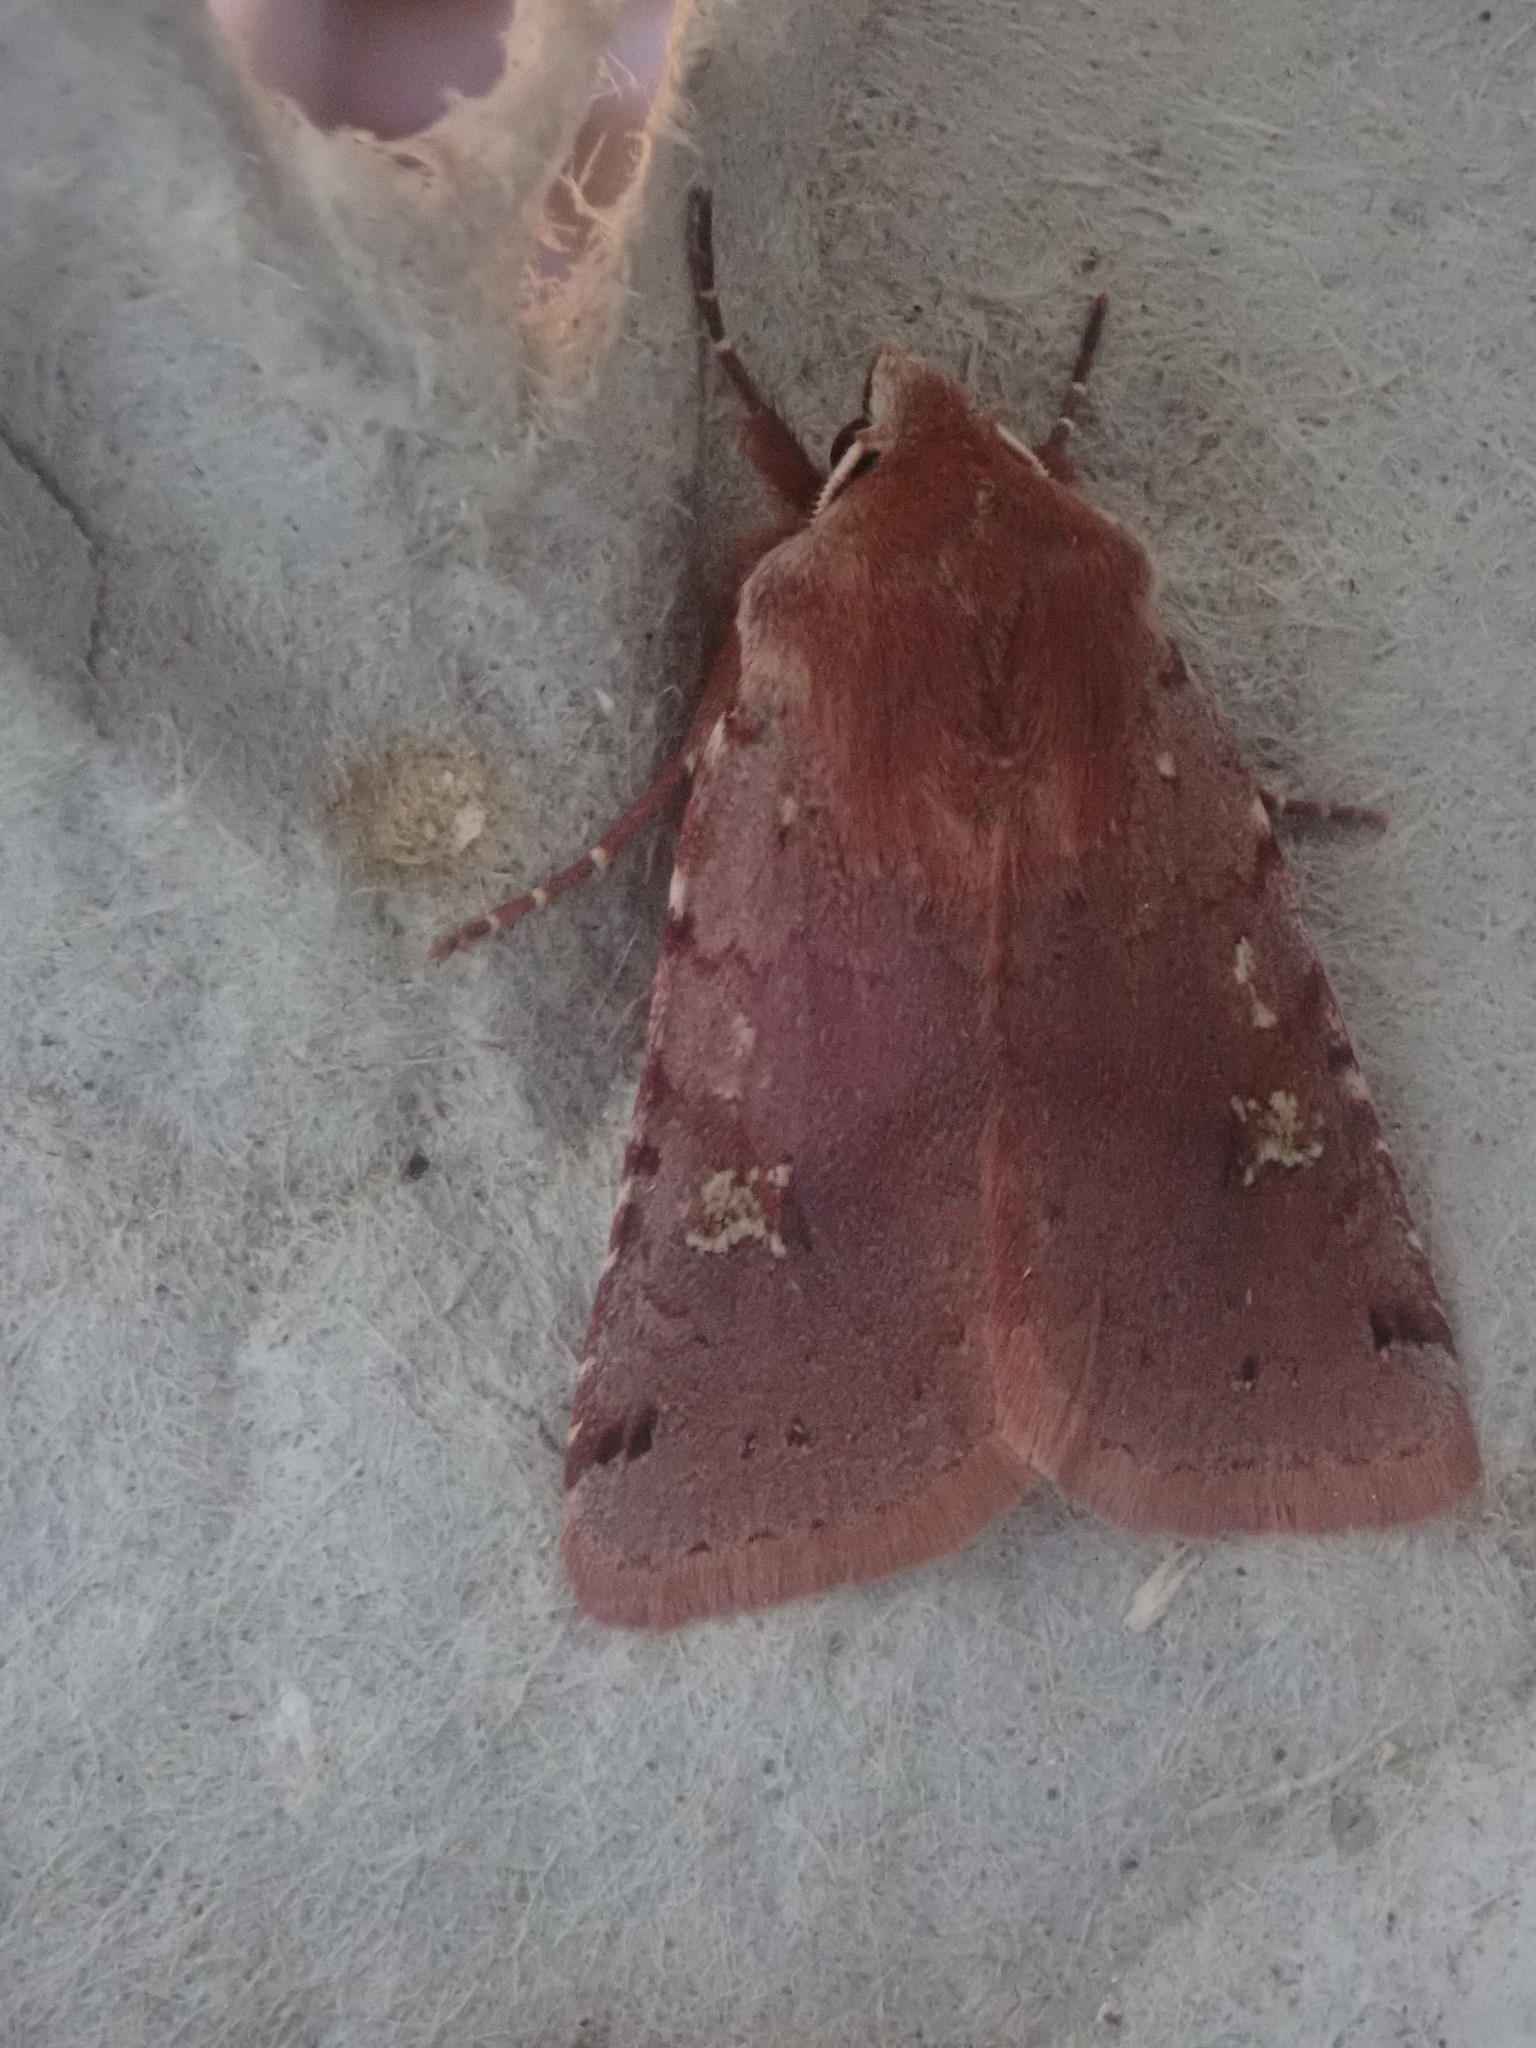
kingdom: Animalia
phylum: Arthropoda
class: Insecta
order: Lepidoptera
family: Noctuidae
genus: Cerastis
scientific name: Cerastis fishii
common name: Fish's dart
